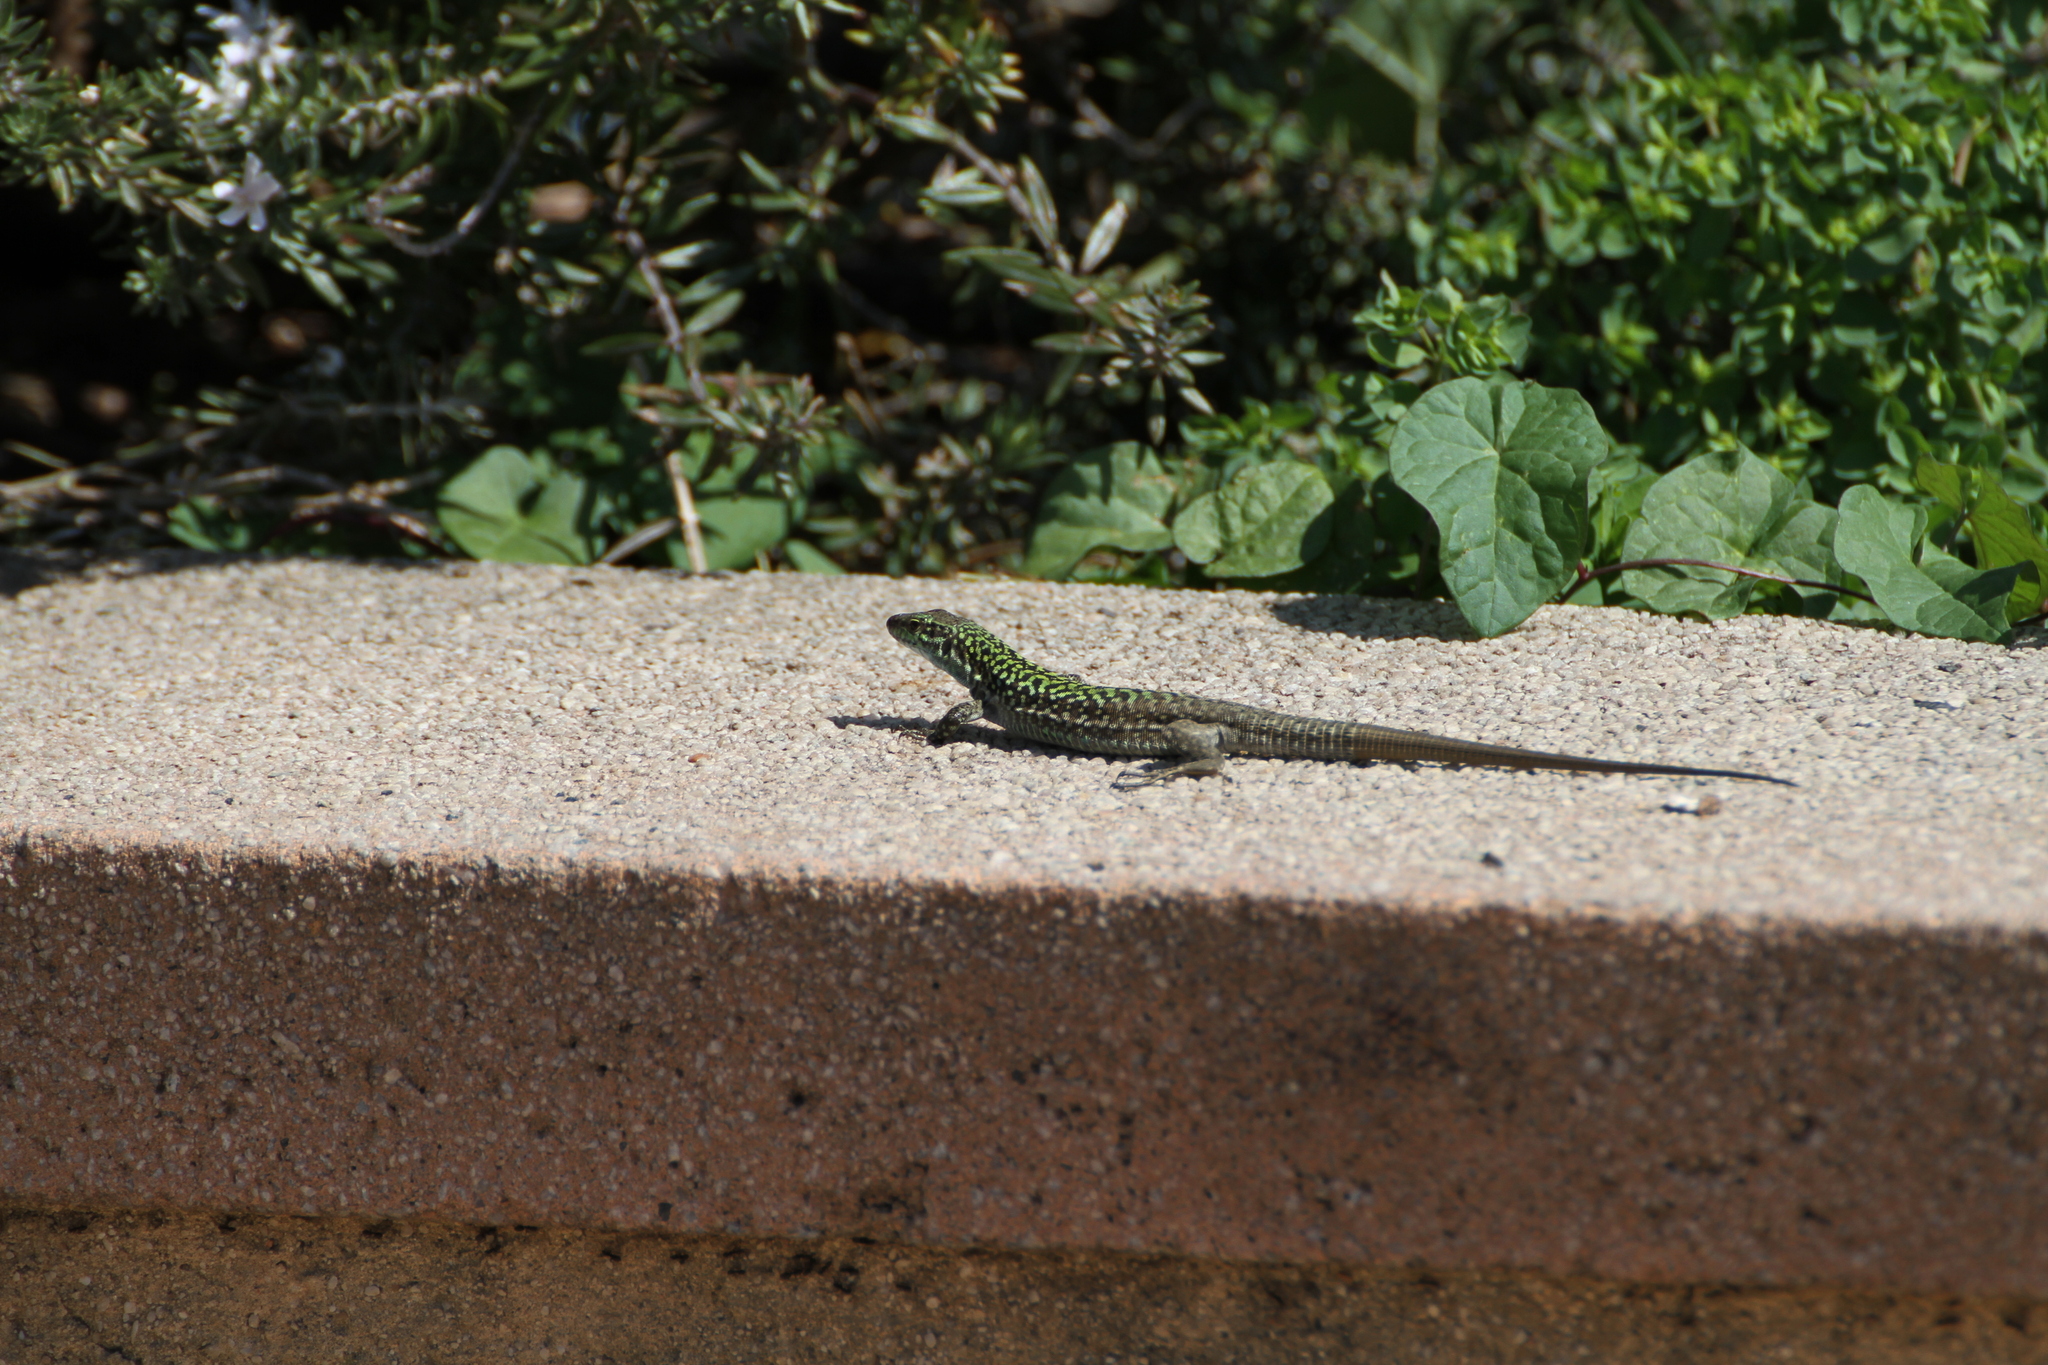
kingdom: Animalia
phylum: Chordata
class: Squamata
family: Lacertidae
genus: Podarcis
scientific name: Podarcis siculus
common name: Italian wall lizard
